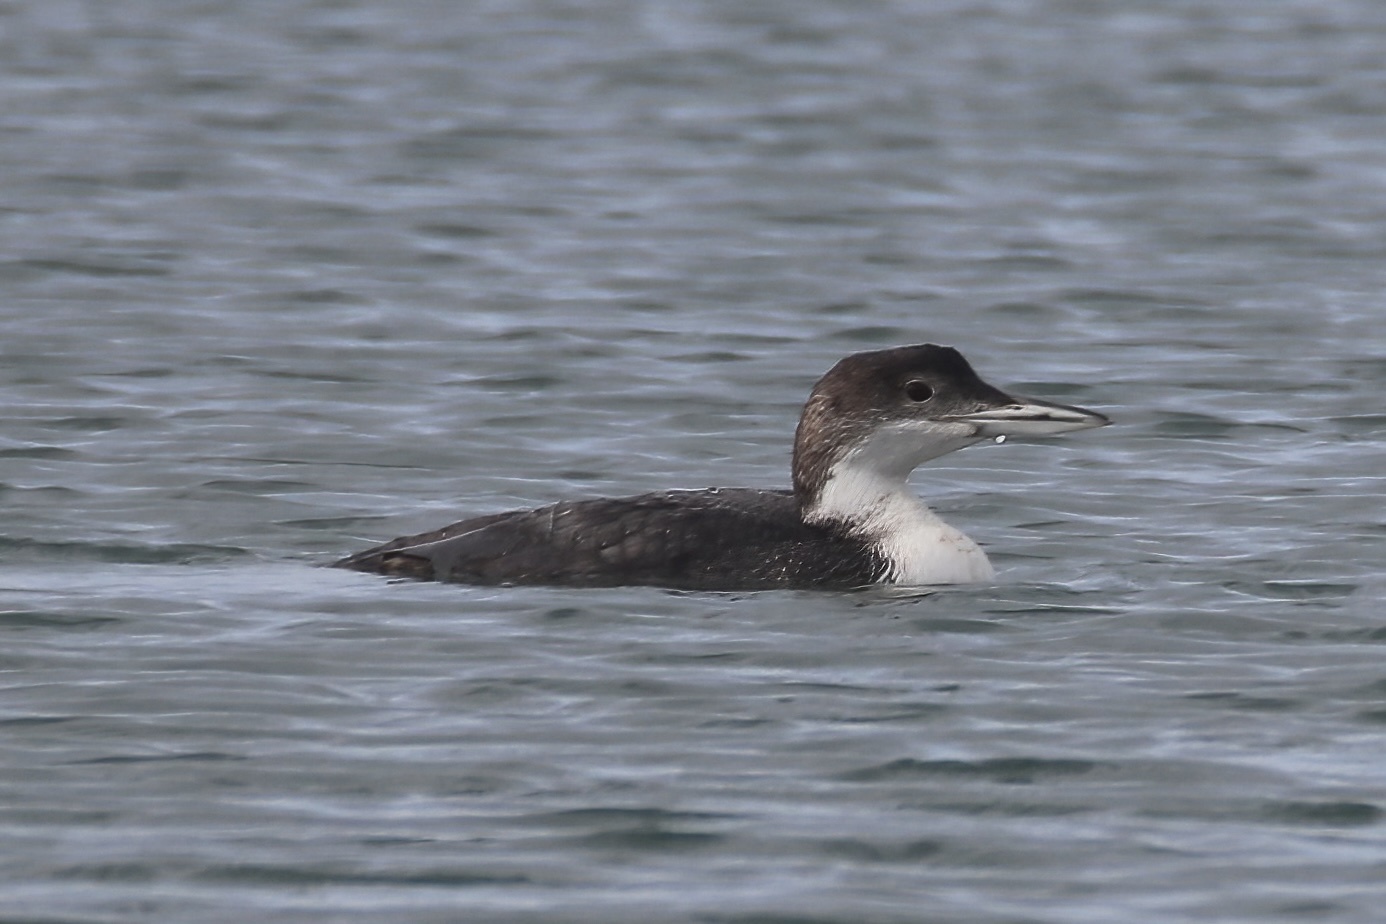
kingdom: Animalia
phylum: Chordata
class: Aves
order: Gaviiformes
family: Gaviidae
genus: Gavia
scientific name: Gavia immer
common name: Common loon
